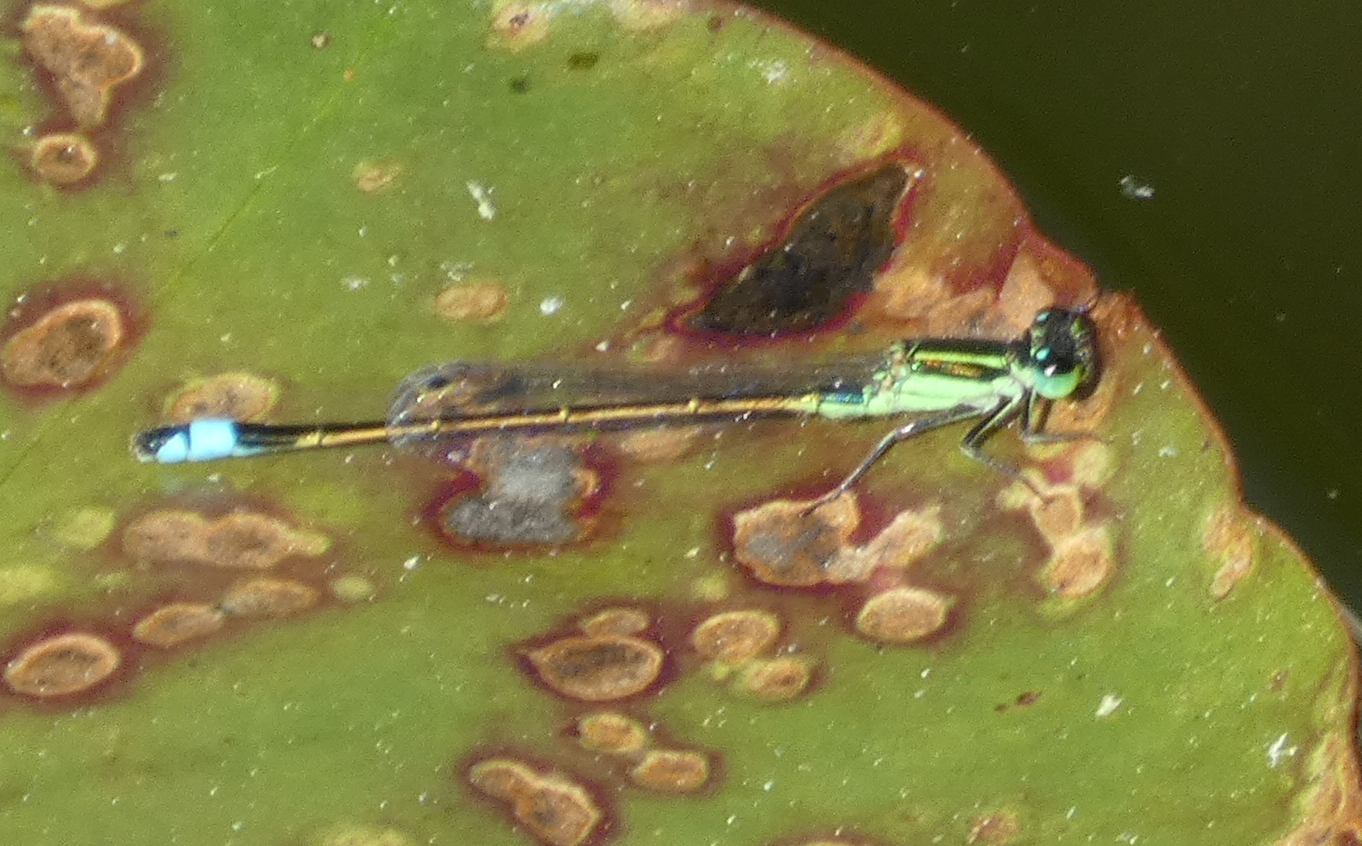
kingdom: Animalia
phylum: Arthropoda
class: Insecta
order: Odonata
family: Coenagrionidae
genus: Ischnura
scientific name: Ischnura ramburii
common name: Rambur's forktail
